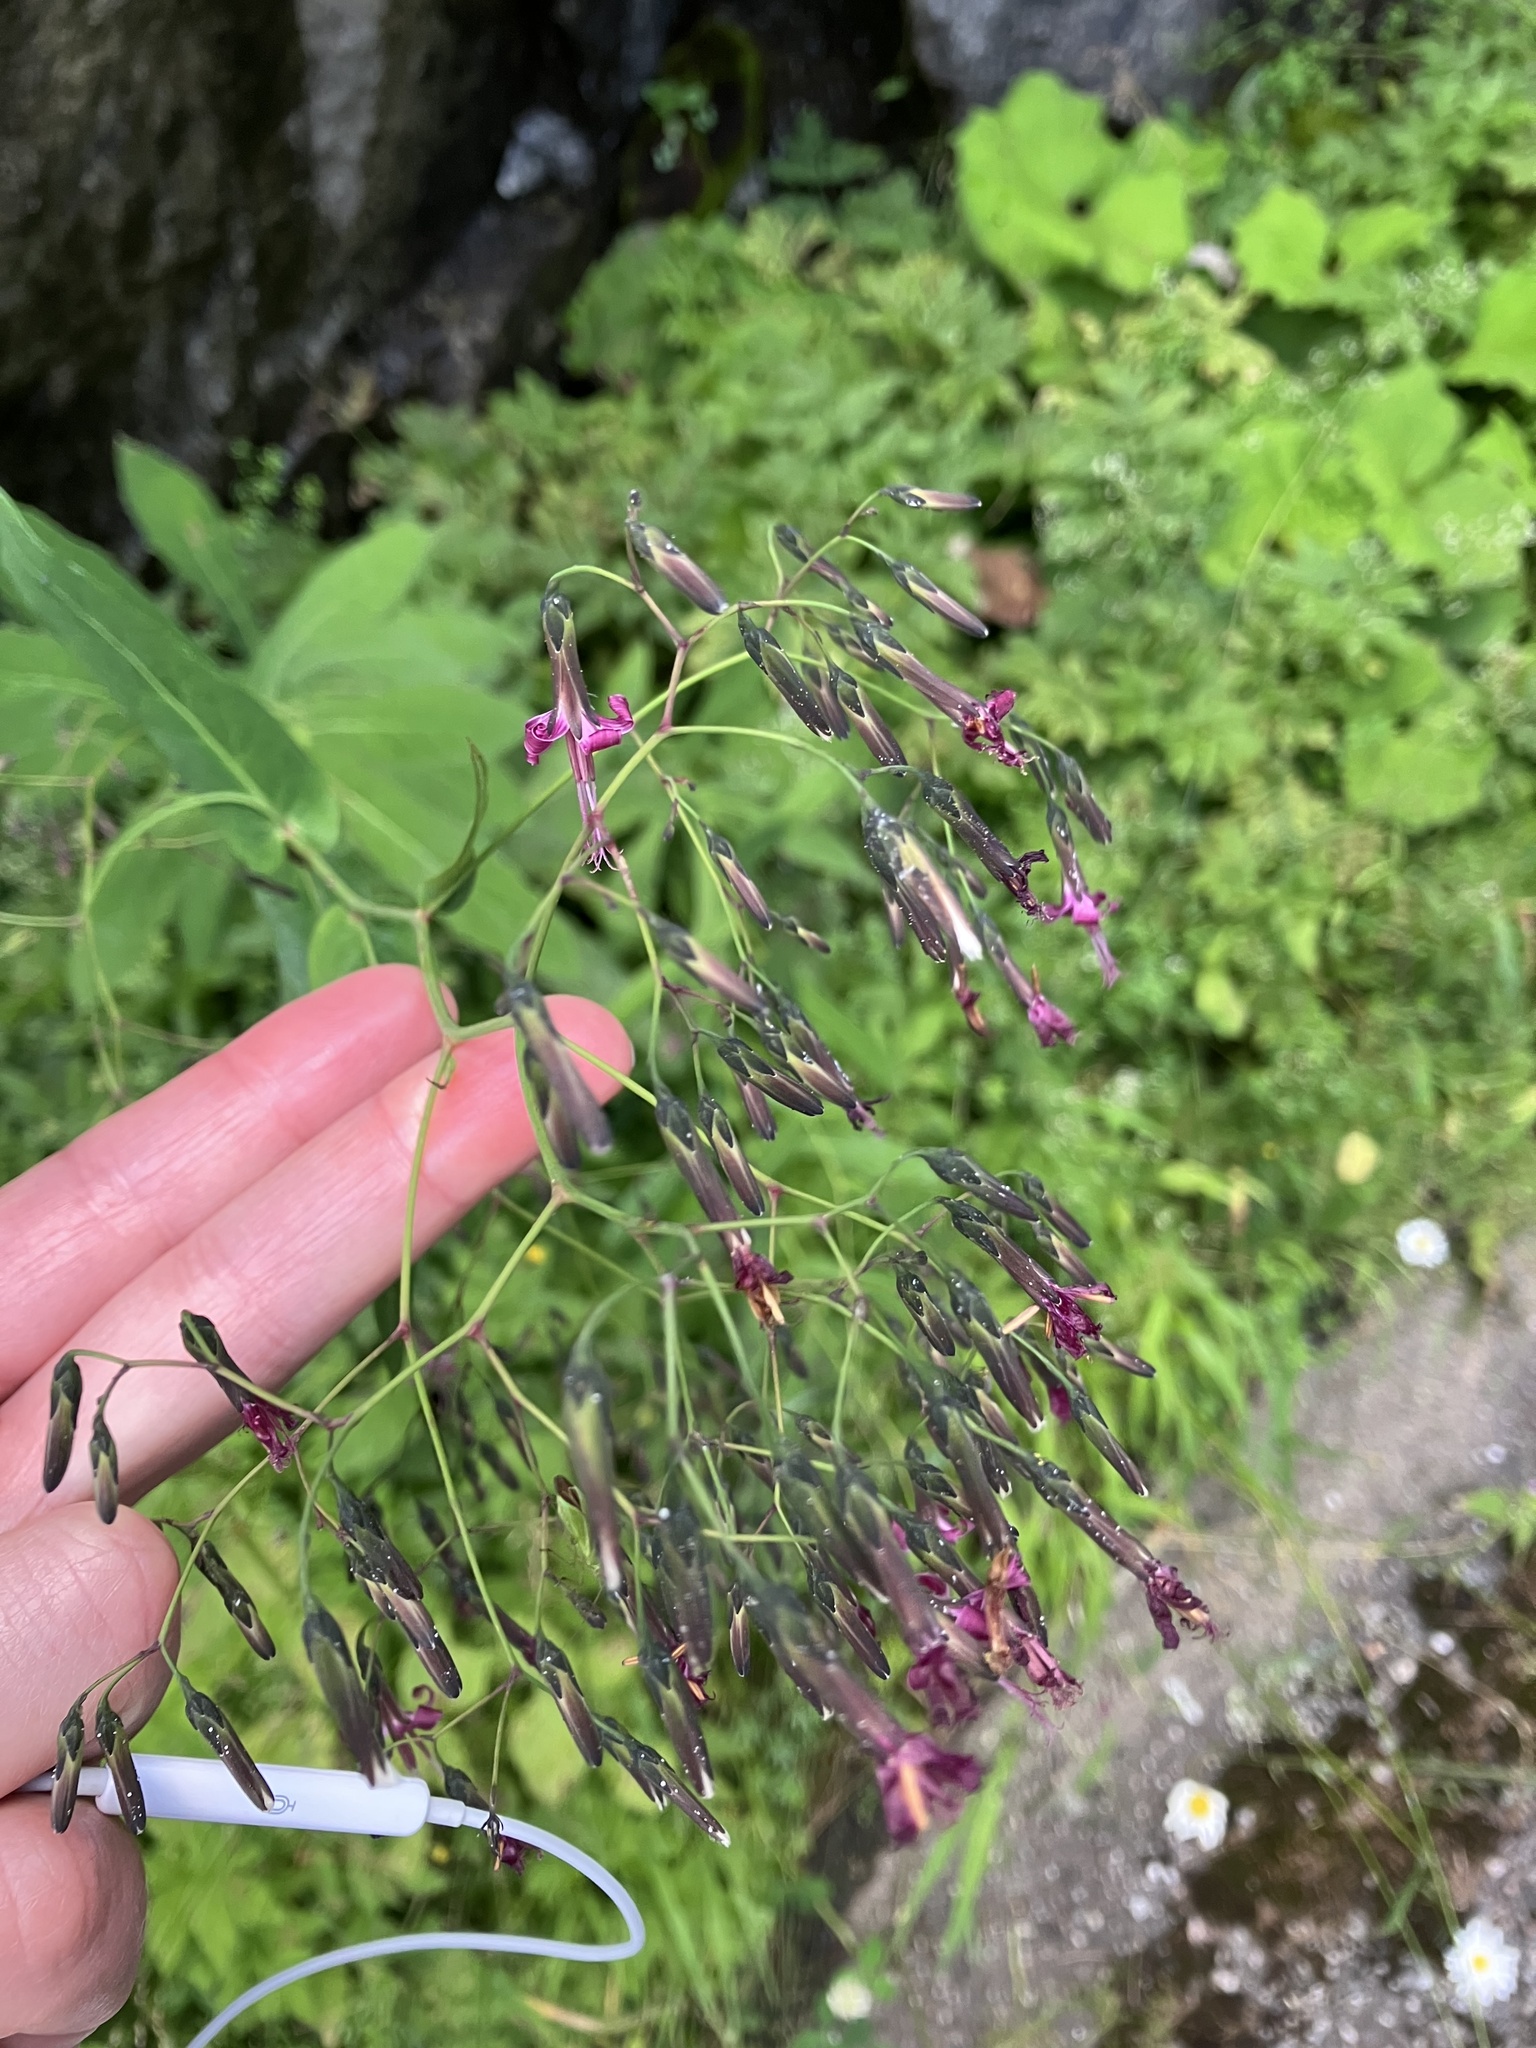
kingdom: Plantae
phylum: Tracheophyta
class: Magnoliopsida
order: Asterales
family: Asteraceae
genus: Prenanthes
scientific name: Prenanthes purpurea
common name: Purple lettuce
